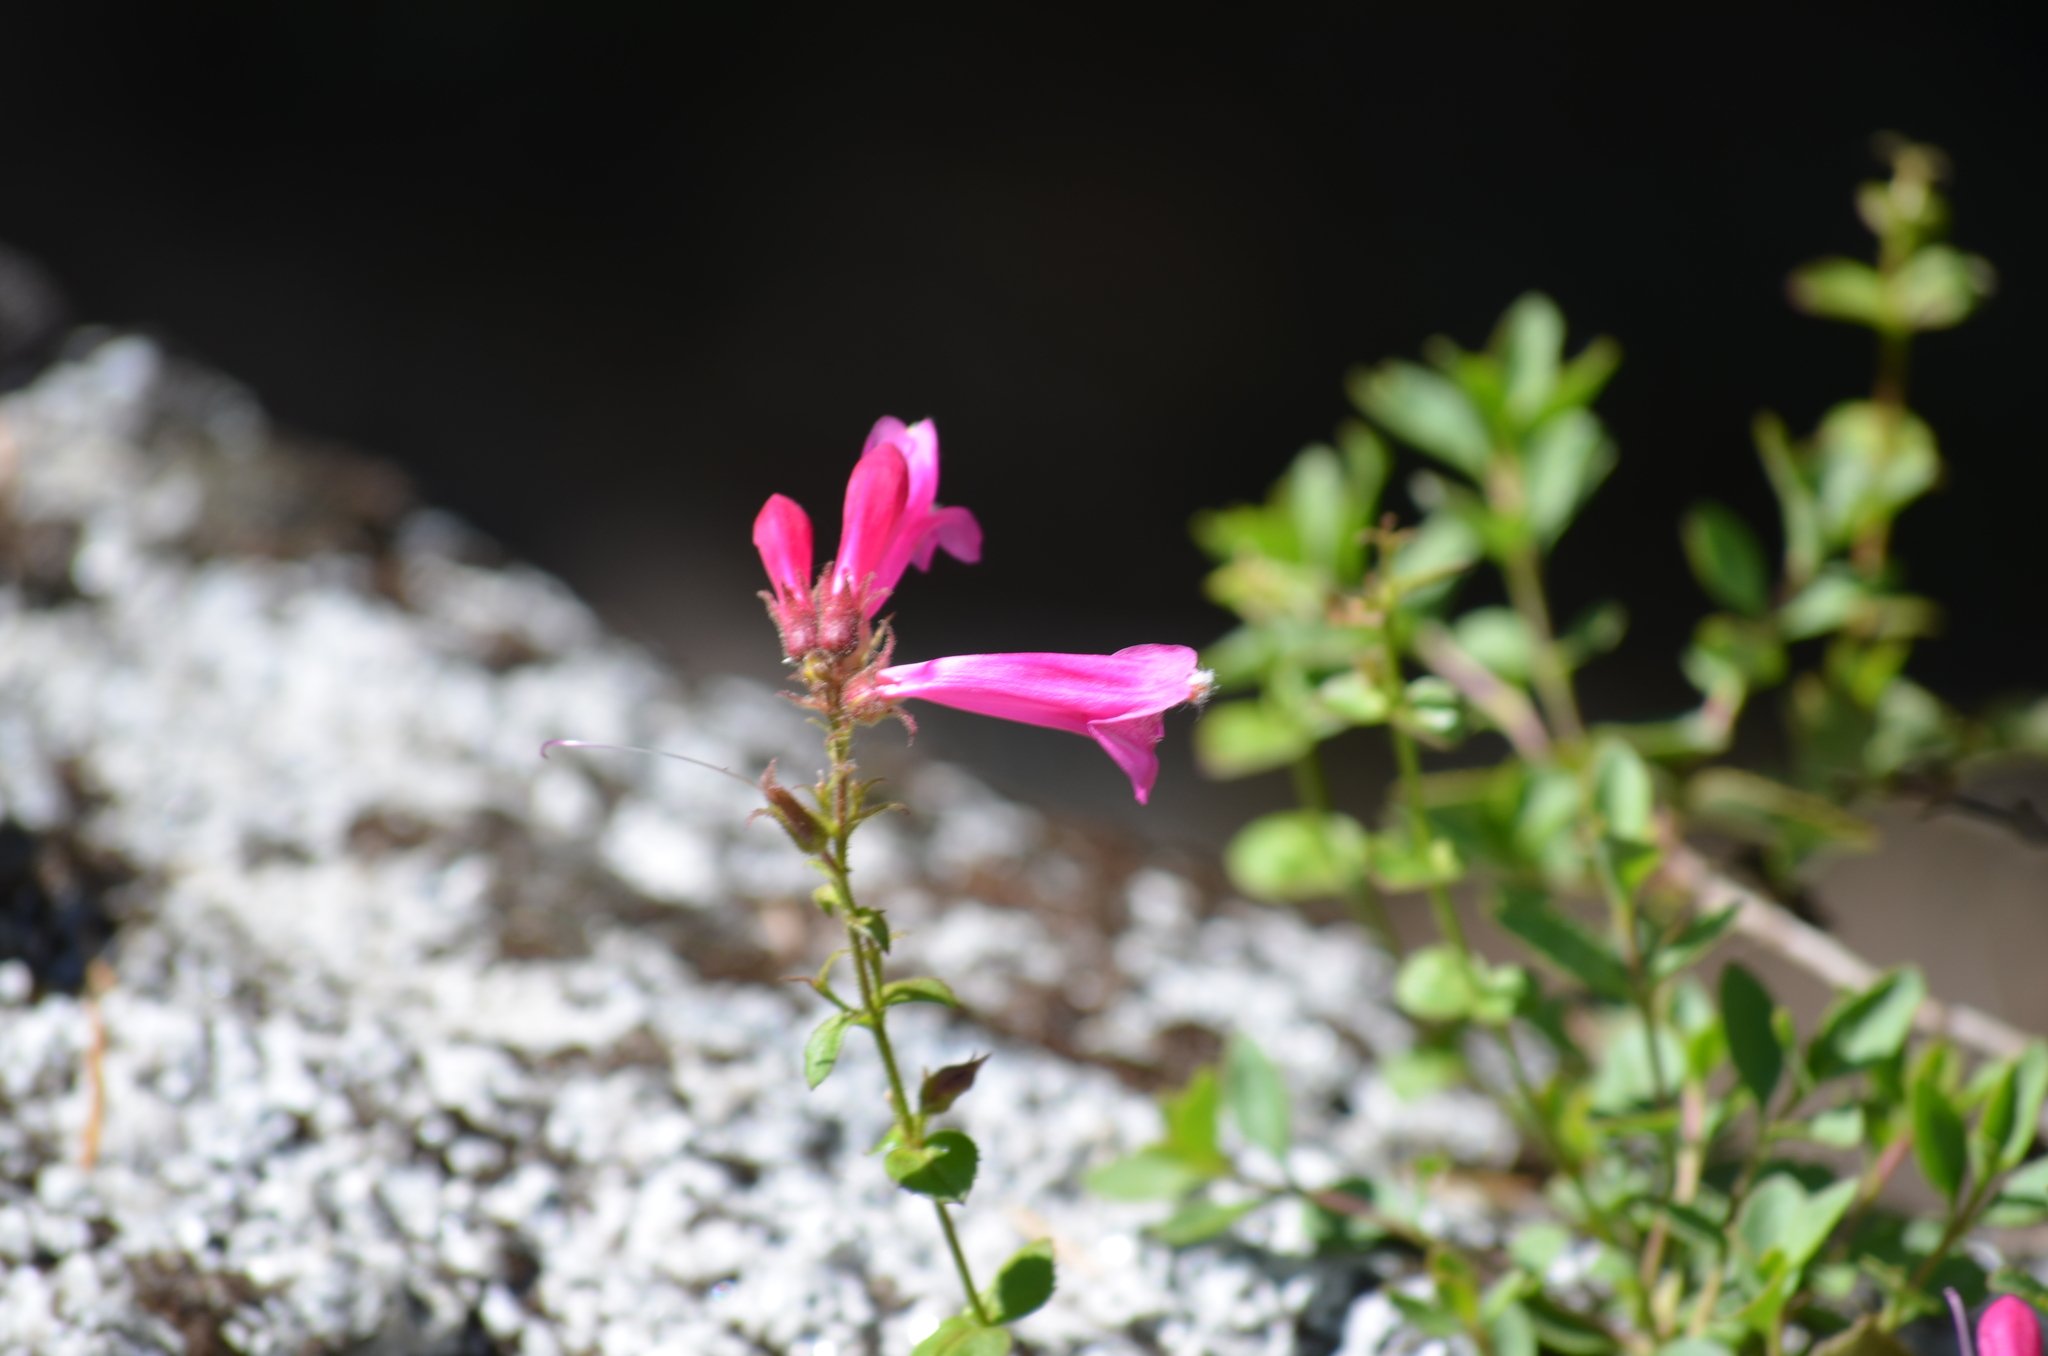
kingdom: Plantae
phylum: Tracheophyta
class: Magnoliopsida
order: Lamiales
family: Plantaginaceae
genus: Penstemon
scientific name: Penstemon newberryi
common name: Mountain-pride
